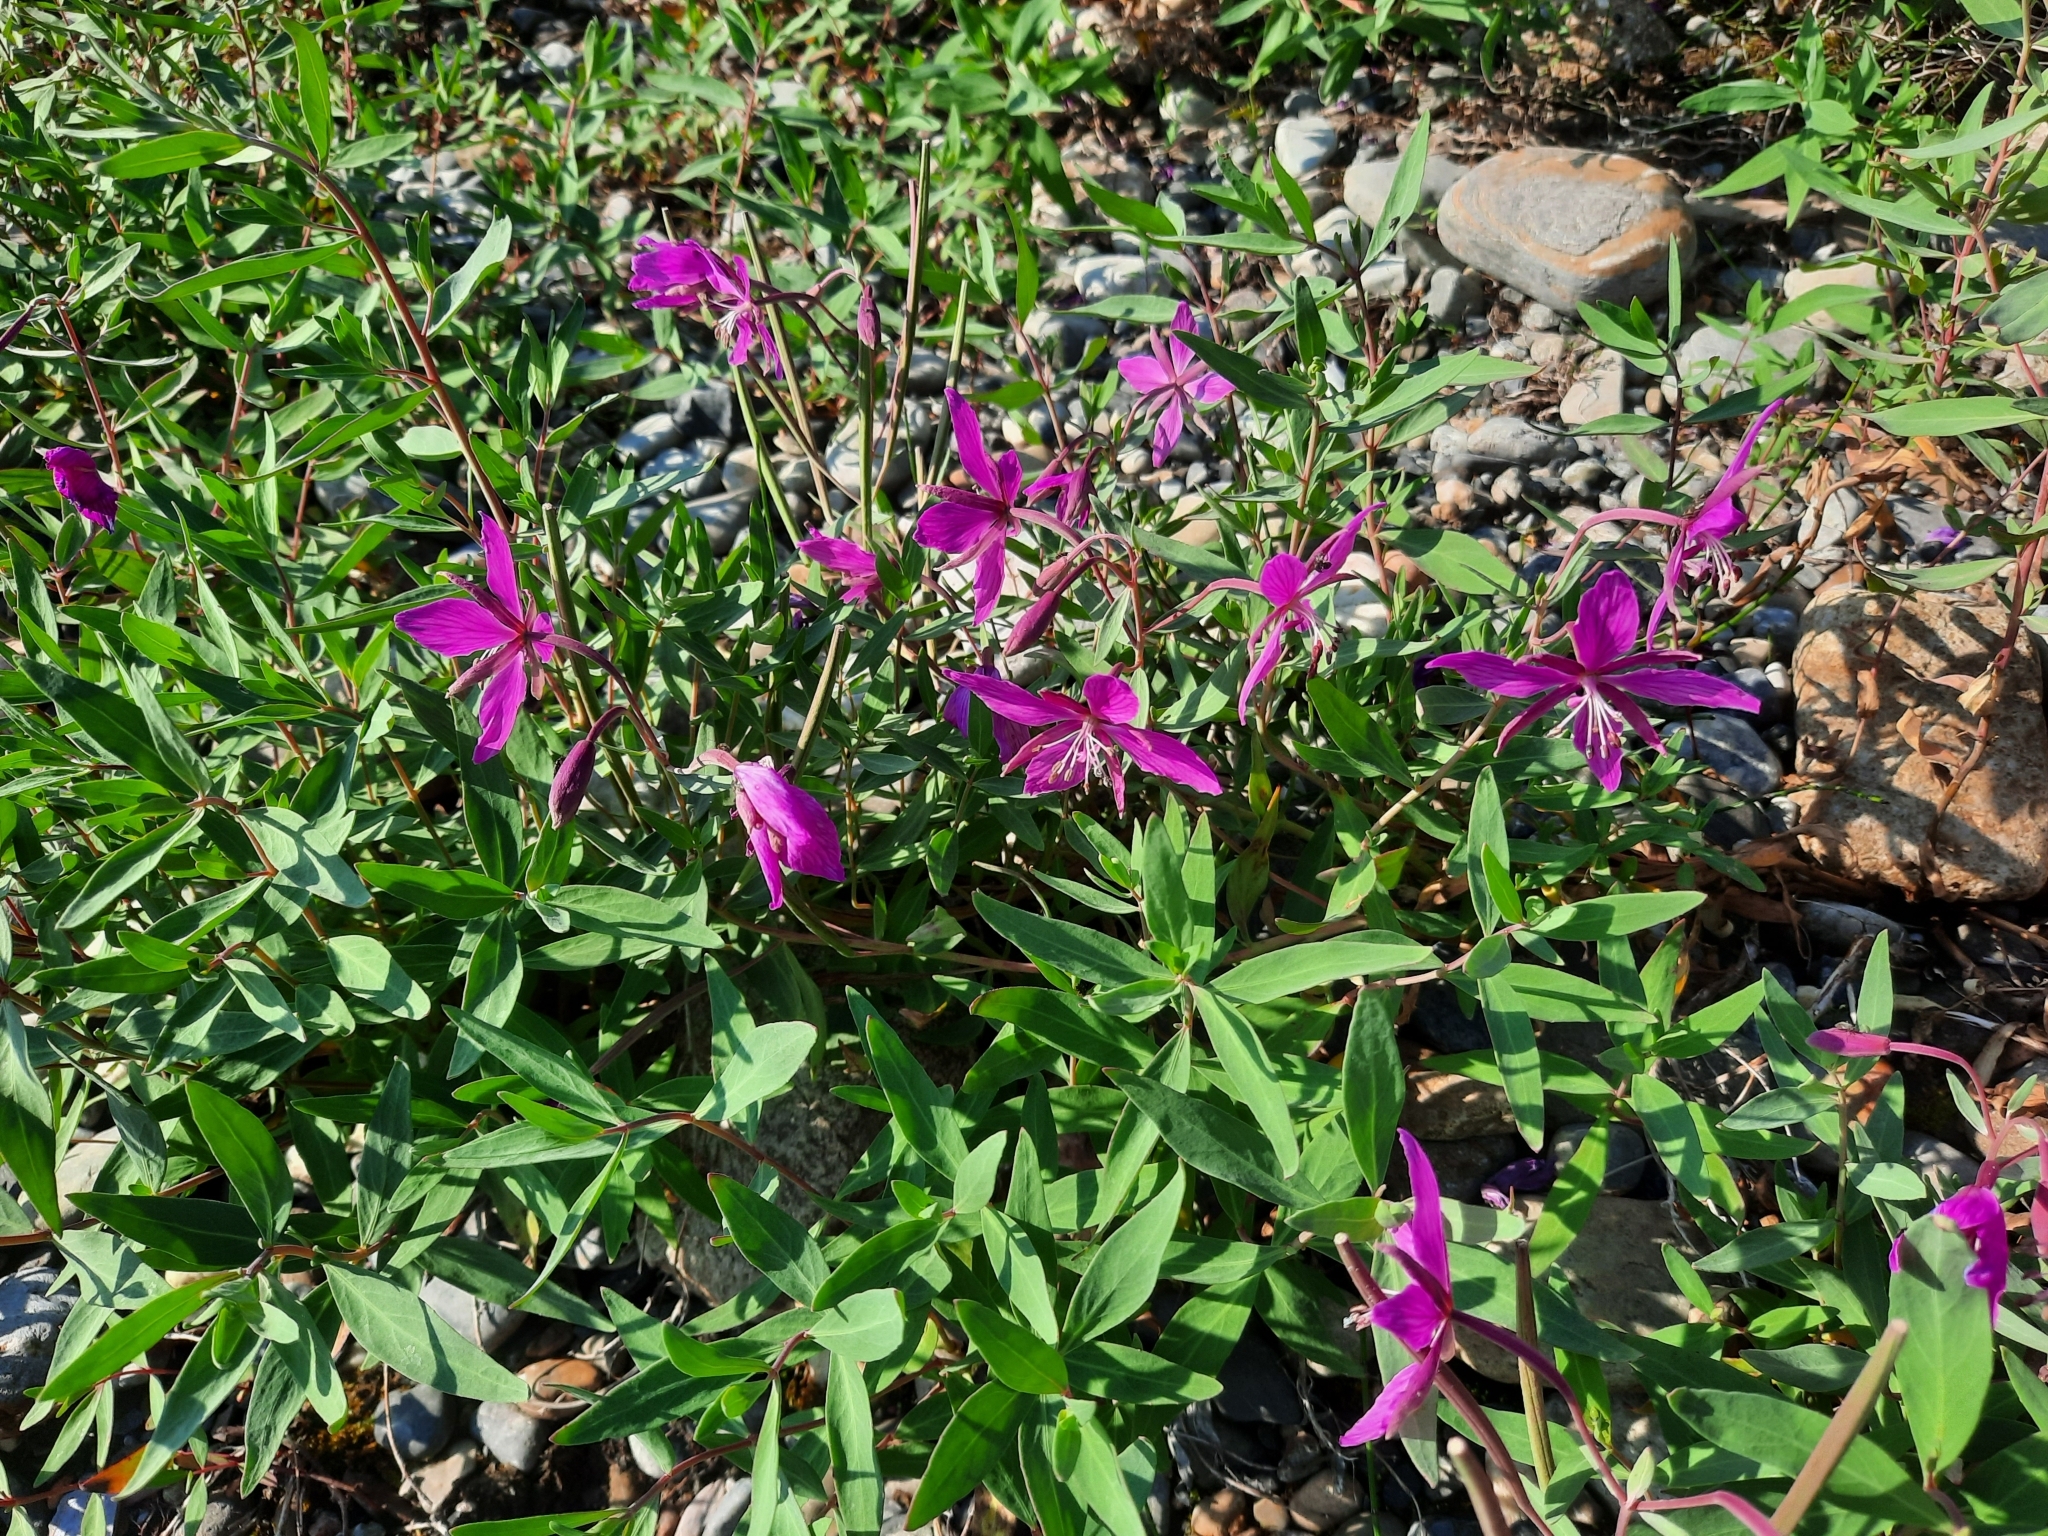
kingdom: Plantae
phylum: Tracheophyta
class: Magnoliopsida
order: Myrtales
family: Onagraceae
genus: Chamaenerion
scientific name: Chamaenerion latifolium
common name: Dwarf fireweed
